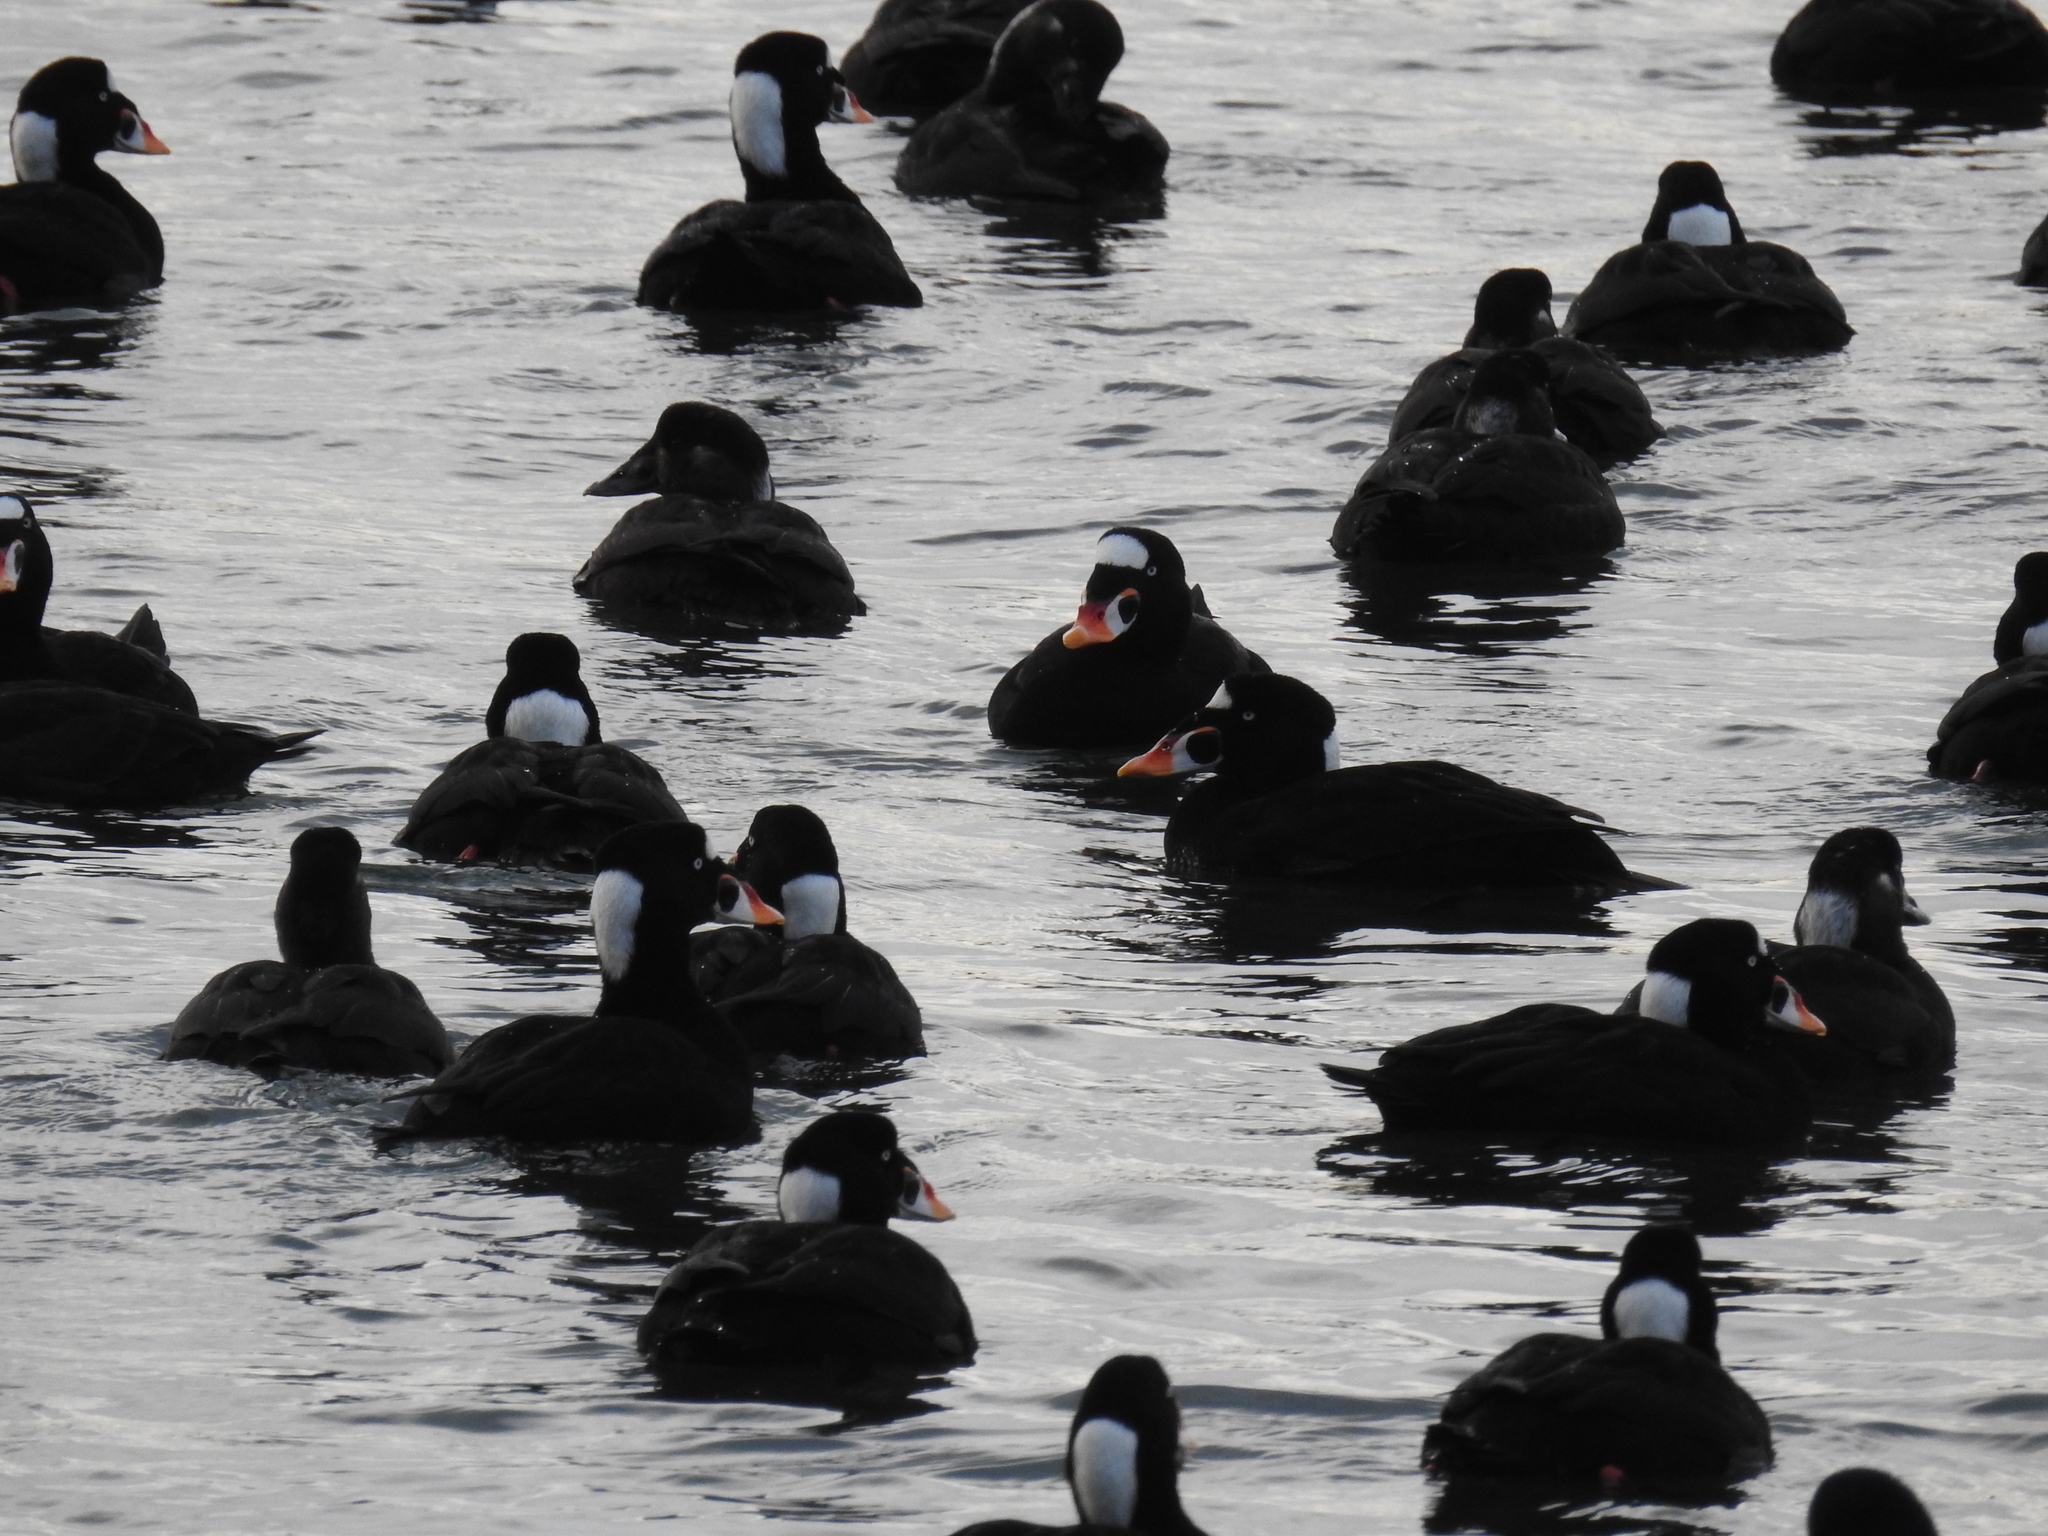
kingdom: Animalia
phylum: Chordata
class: Aves
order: Anseriformes
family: Anatidae
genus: Melanitta
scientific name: Melanitta perspicillata
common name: Surf scoter
